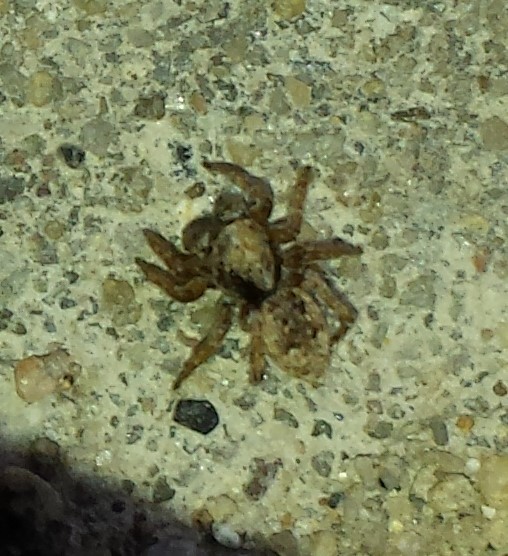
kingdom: Animalia
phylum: Arthropoda
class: Arachnida
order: Araneae
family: Salticidae
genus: Attulus
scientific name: Attulus fasciger
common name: Asiatic wall jumping spider
